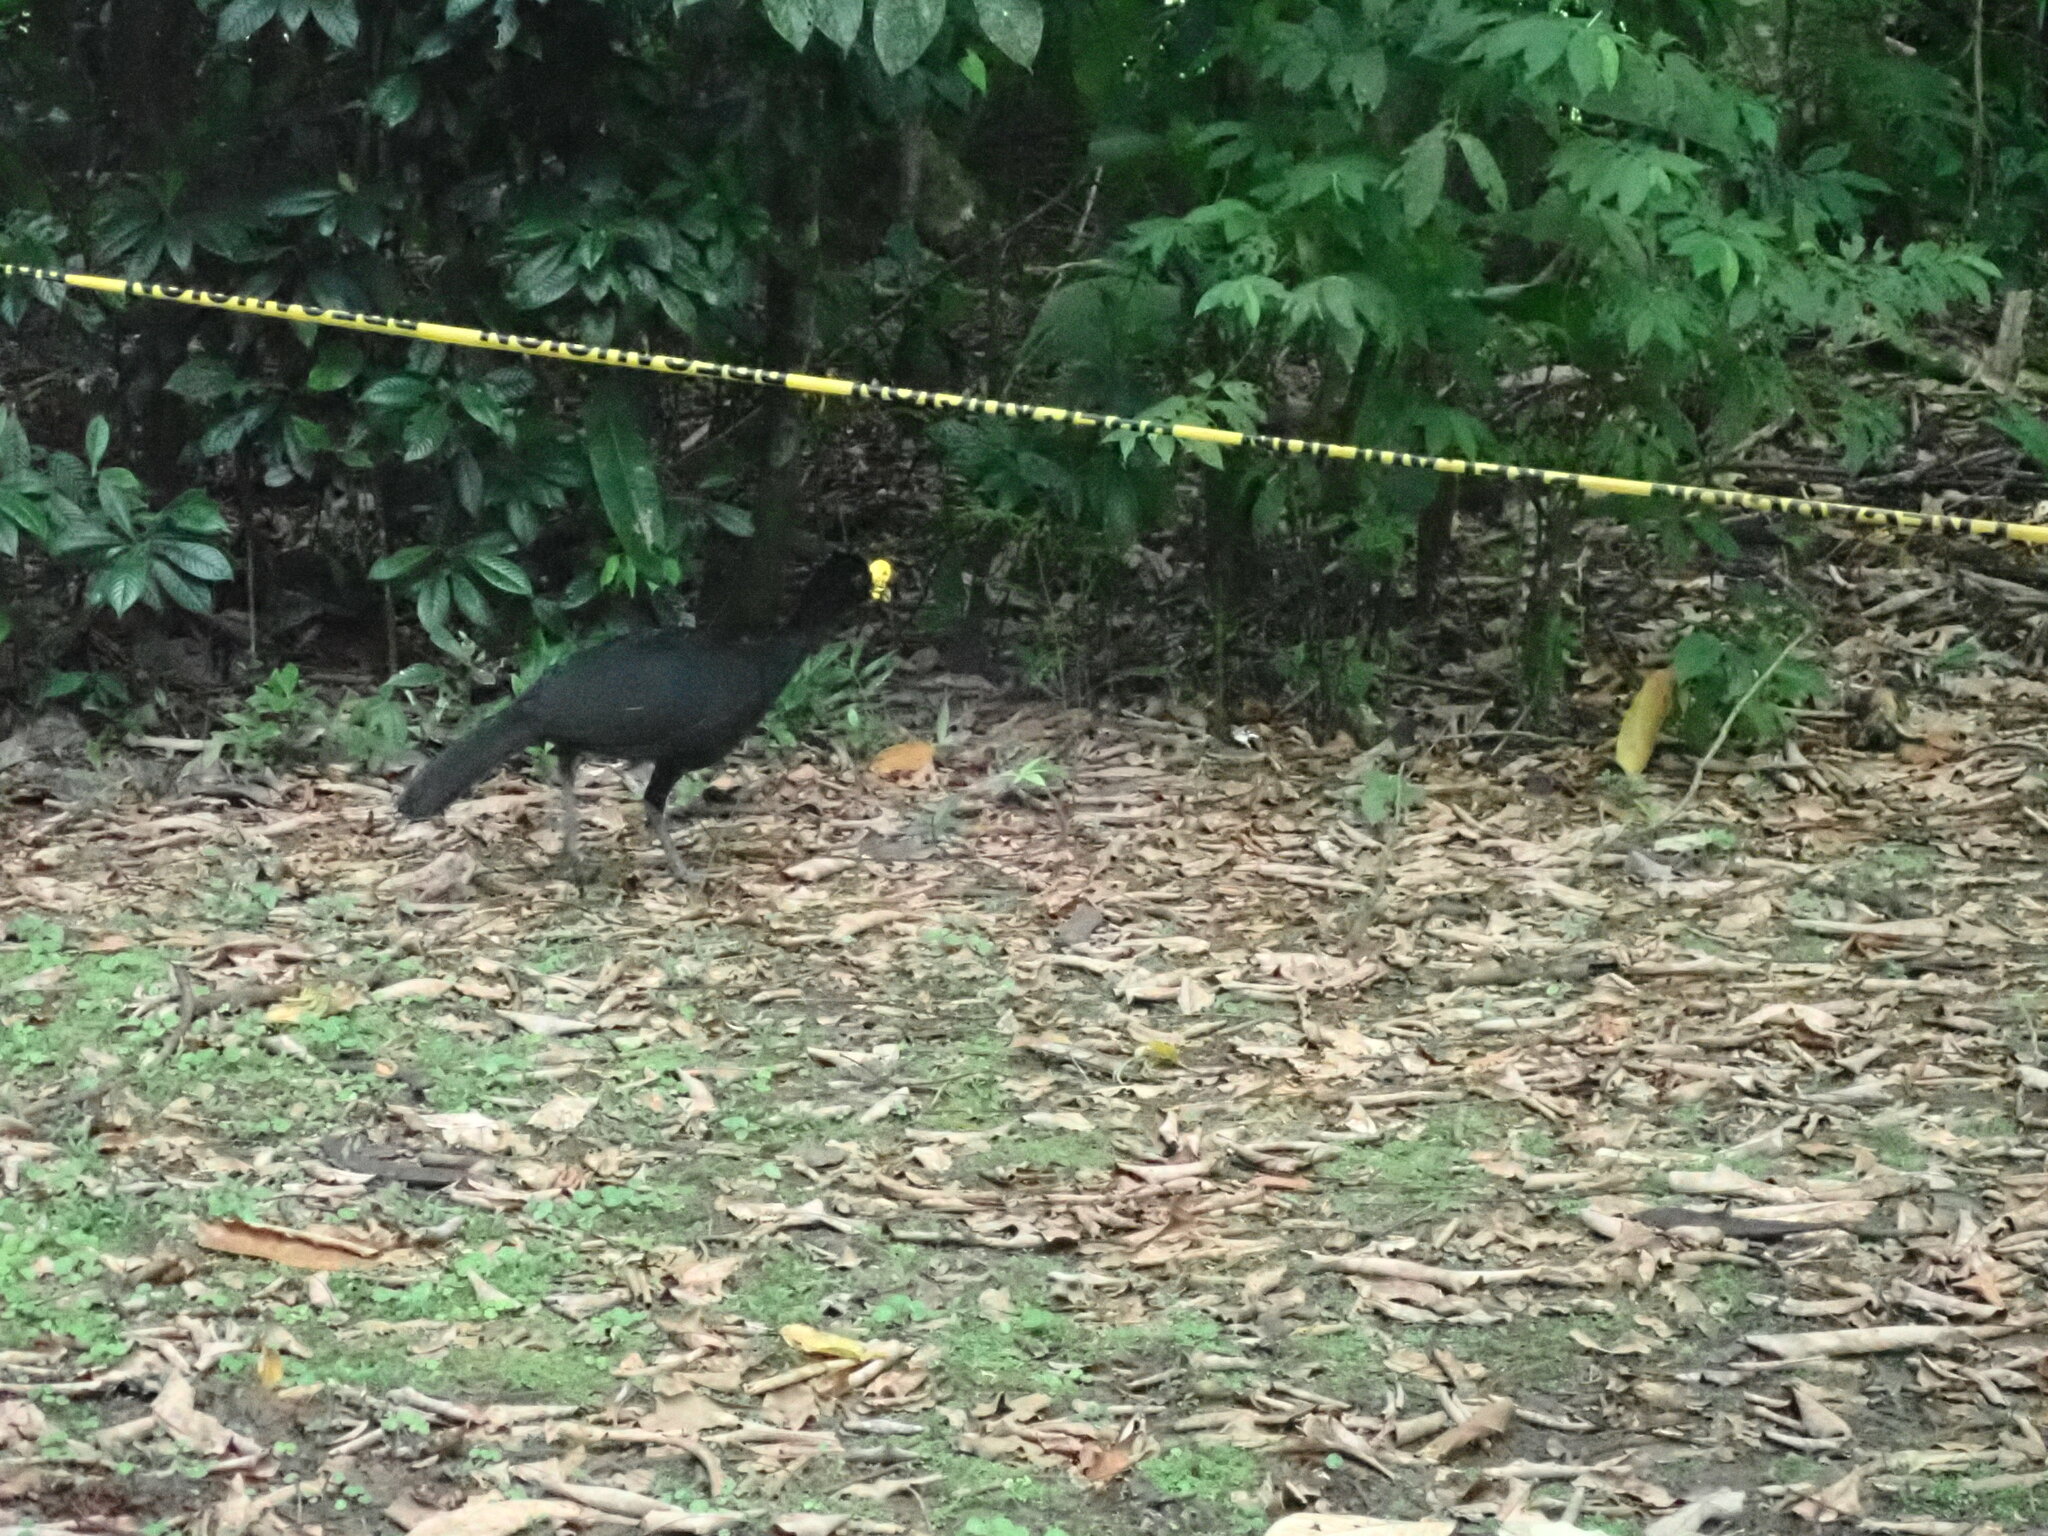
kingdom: Animalia
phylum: Chordata
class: Aves
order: Galliformes
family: Cracidae
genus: Crax
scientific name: Crax rubra
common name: Great curassow
